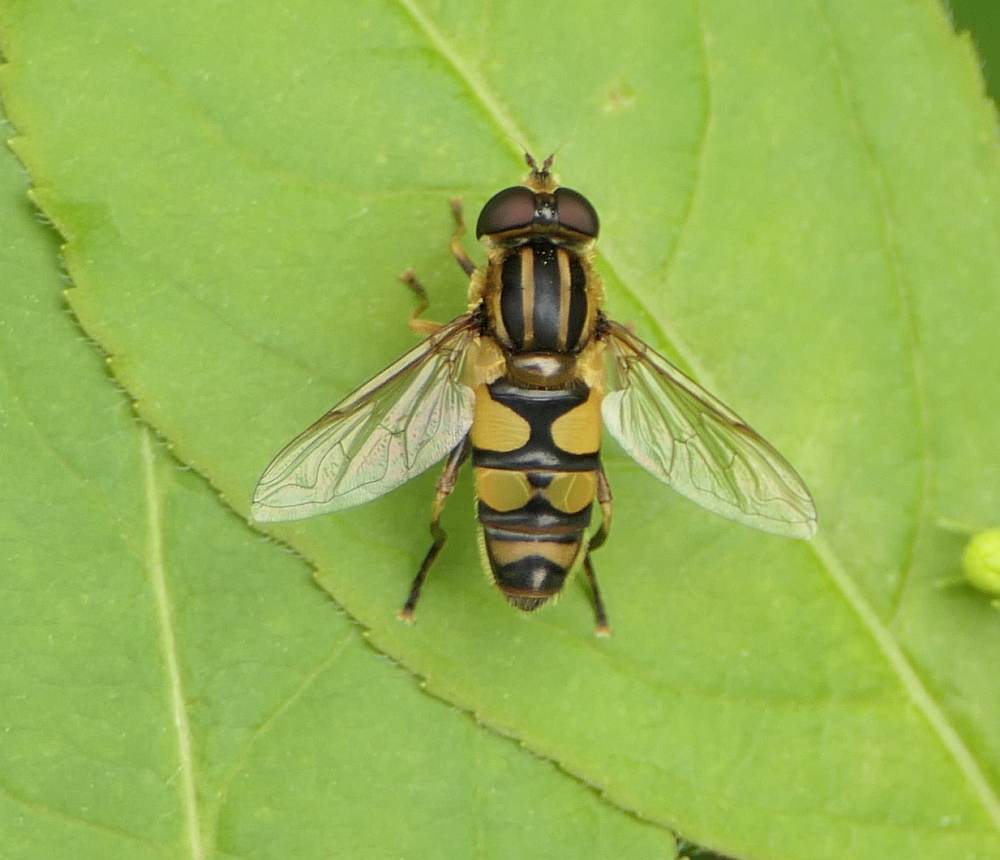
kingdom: Animalia
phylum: Arthropoda
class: Insecta
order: Diptera
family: Syrphidae
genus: Helophilus
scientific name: Helophilus fasciatus
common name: Narrow-headed marsh fly
